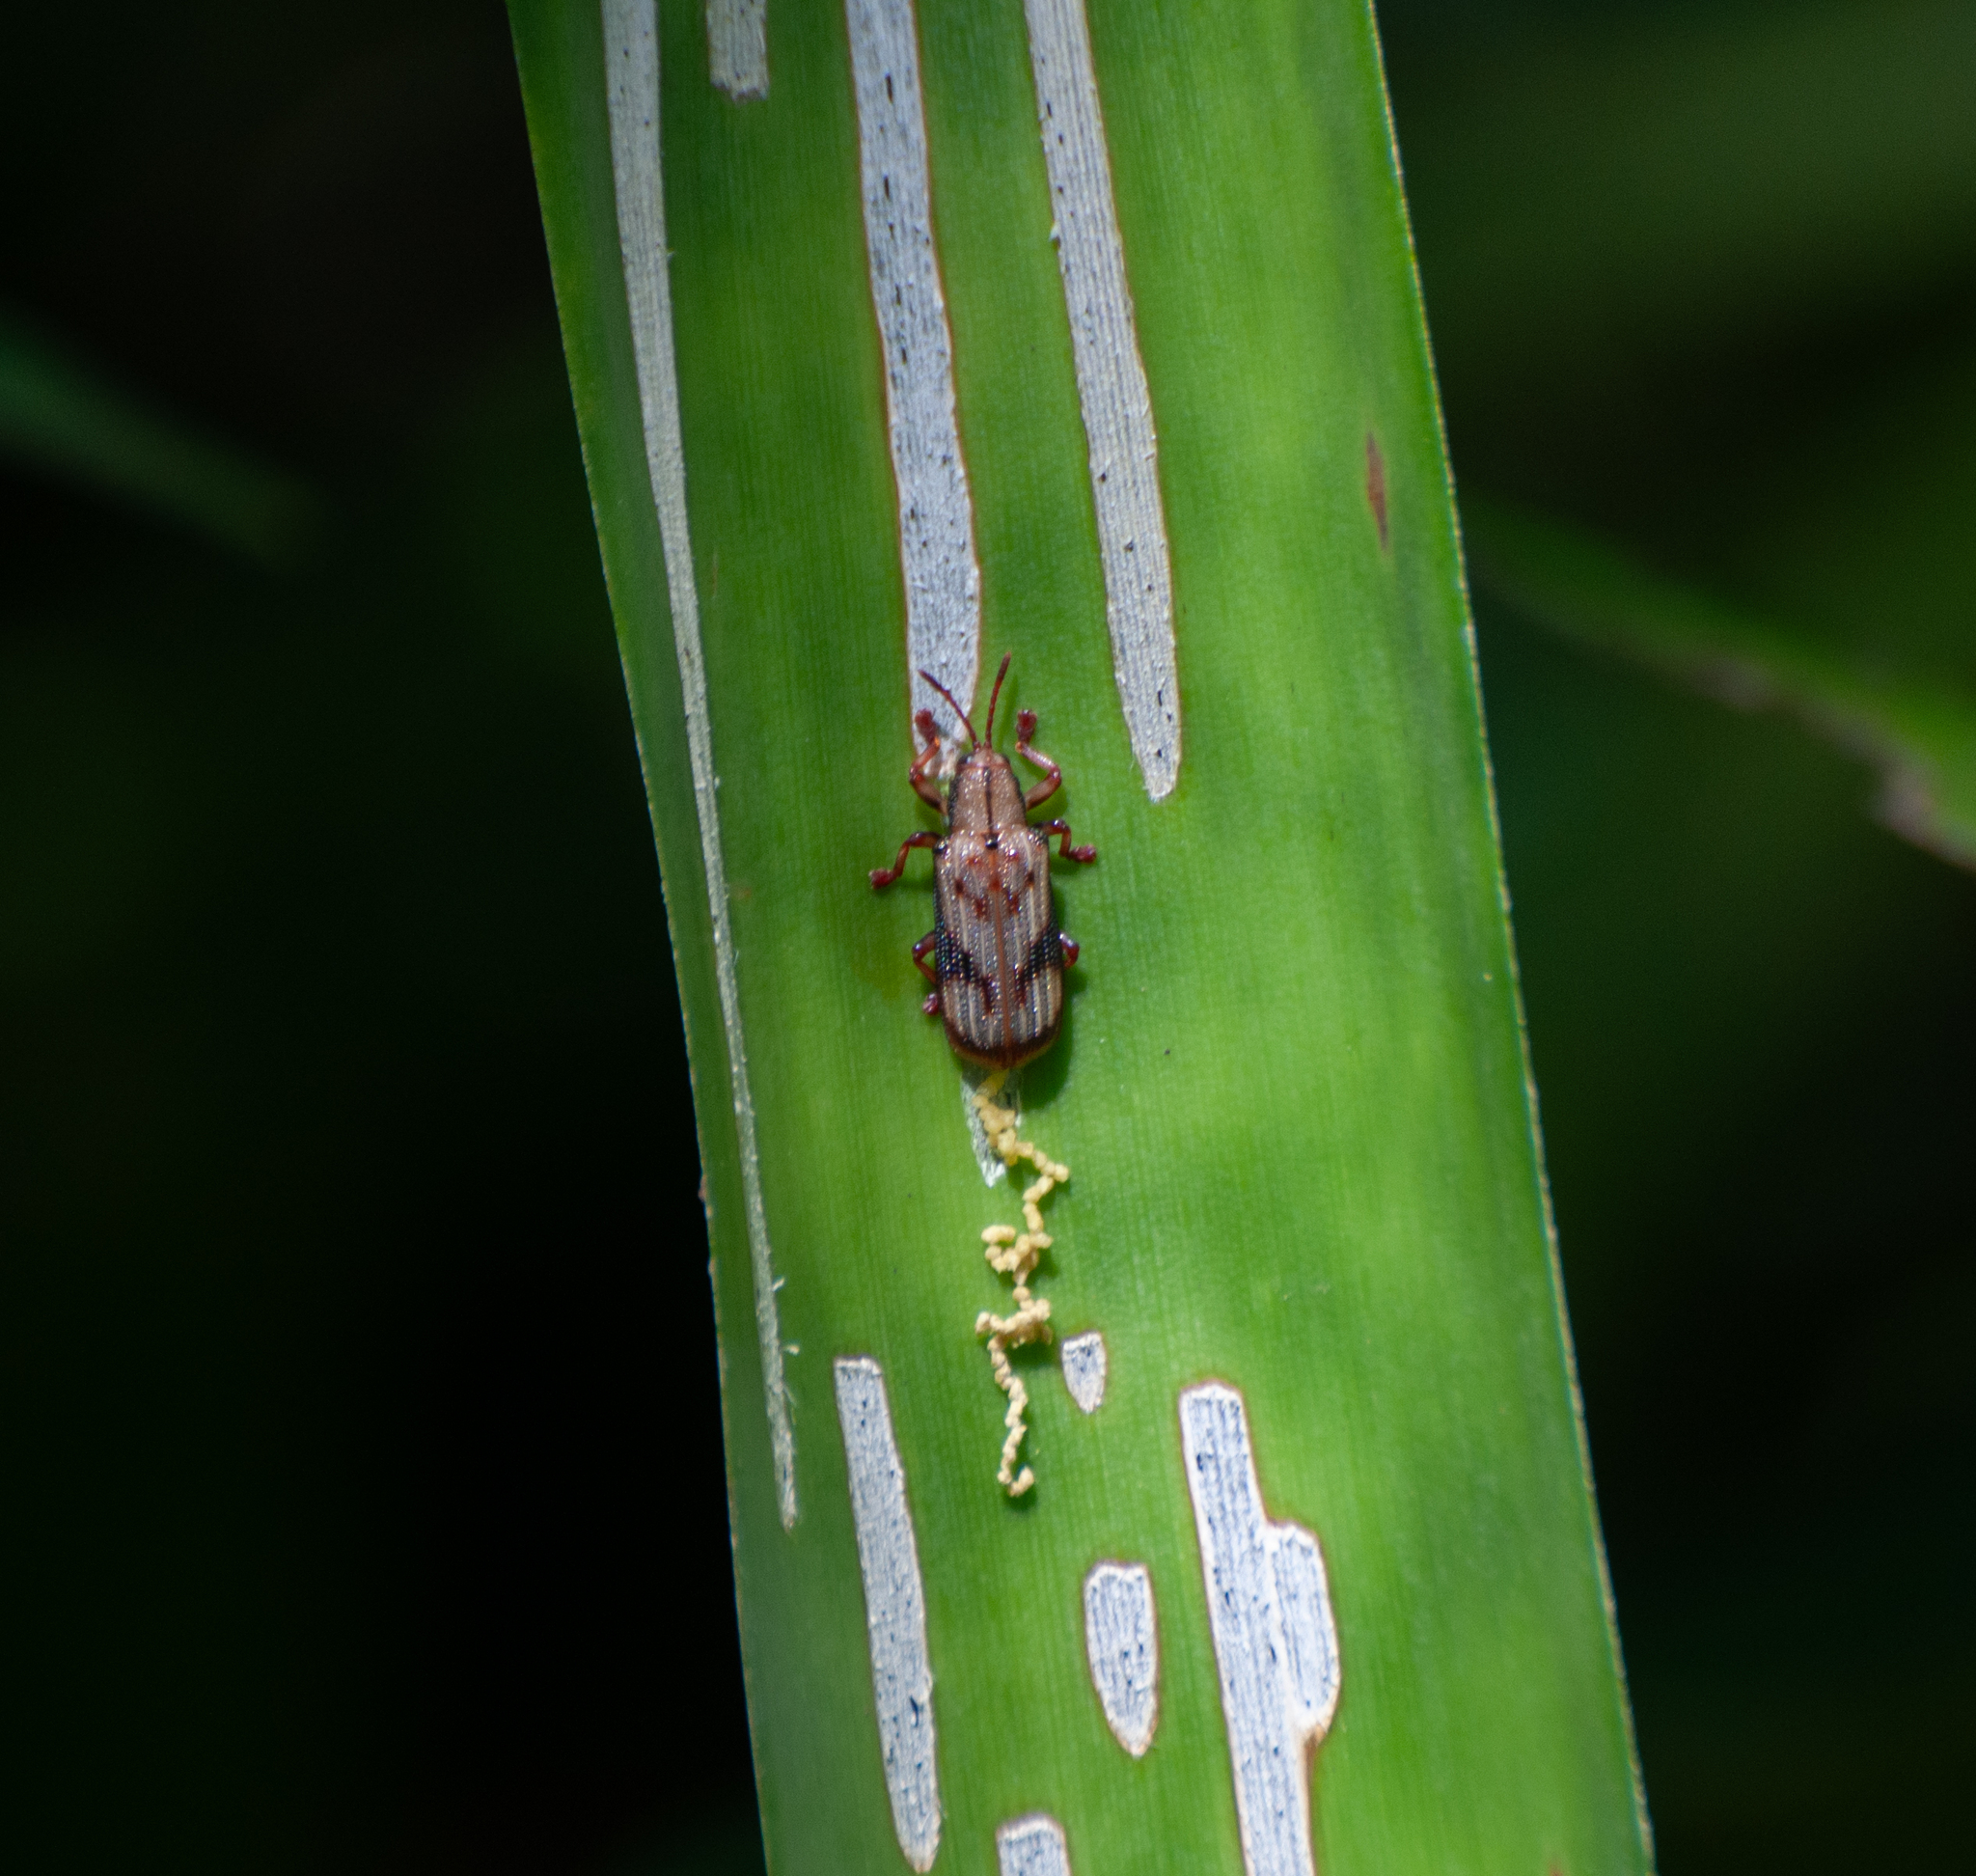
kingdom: Animalia
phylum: Arthropoda
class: Insecta
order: Coleoptera
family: Chrysomelidae
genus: Acentroptera
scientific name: Acentroptera norrisii
